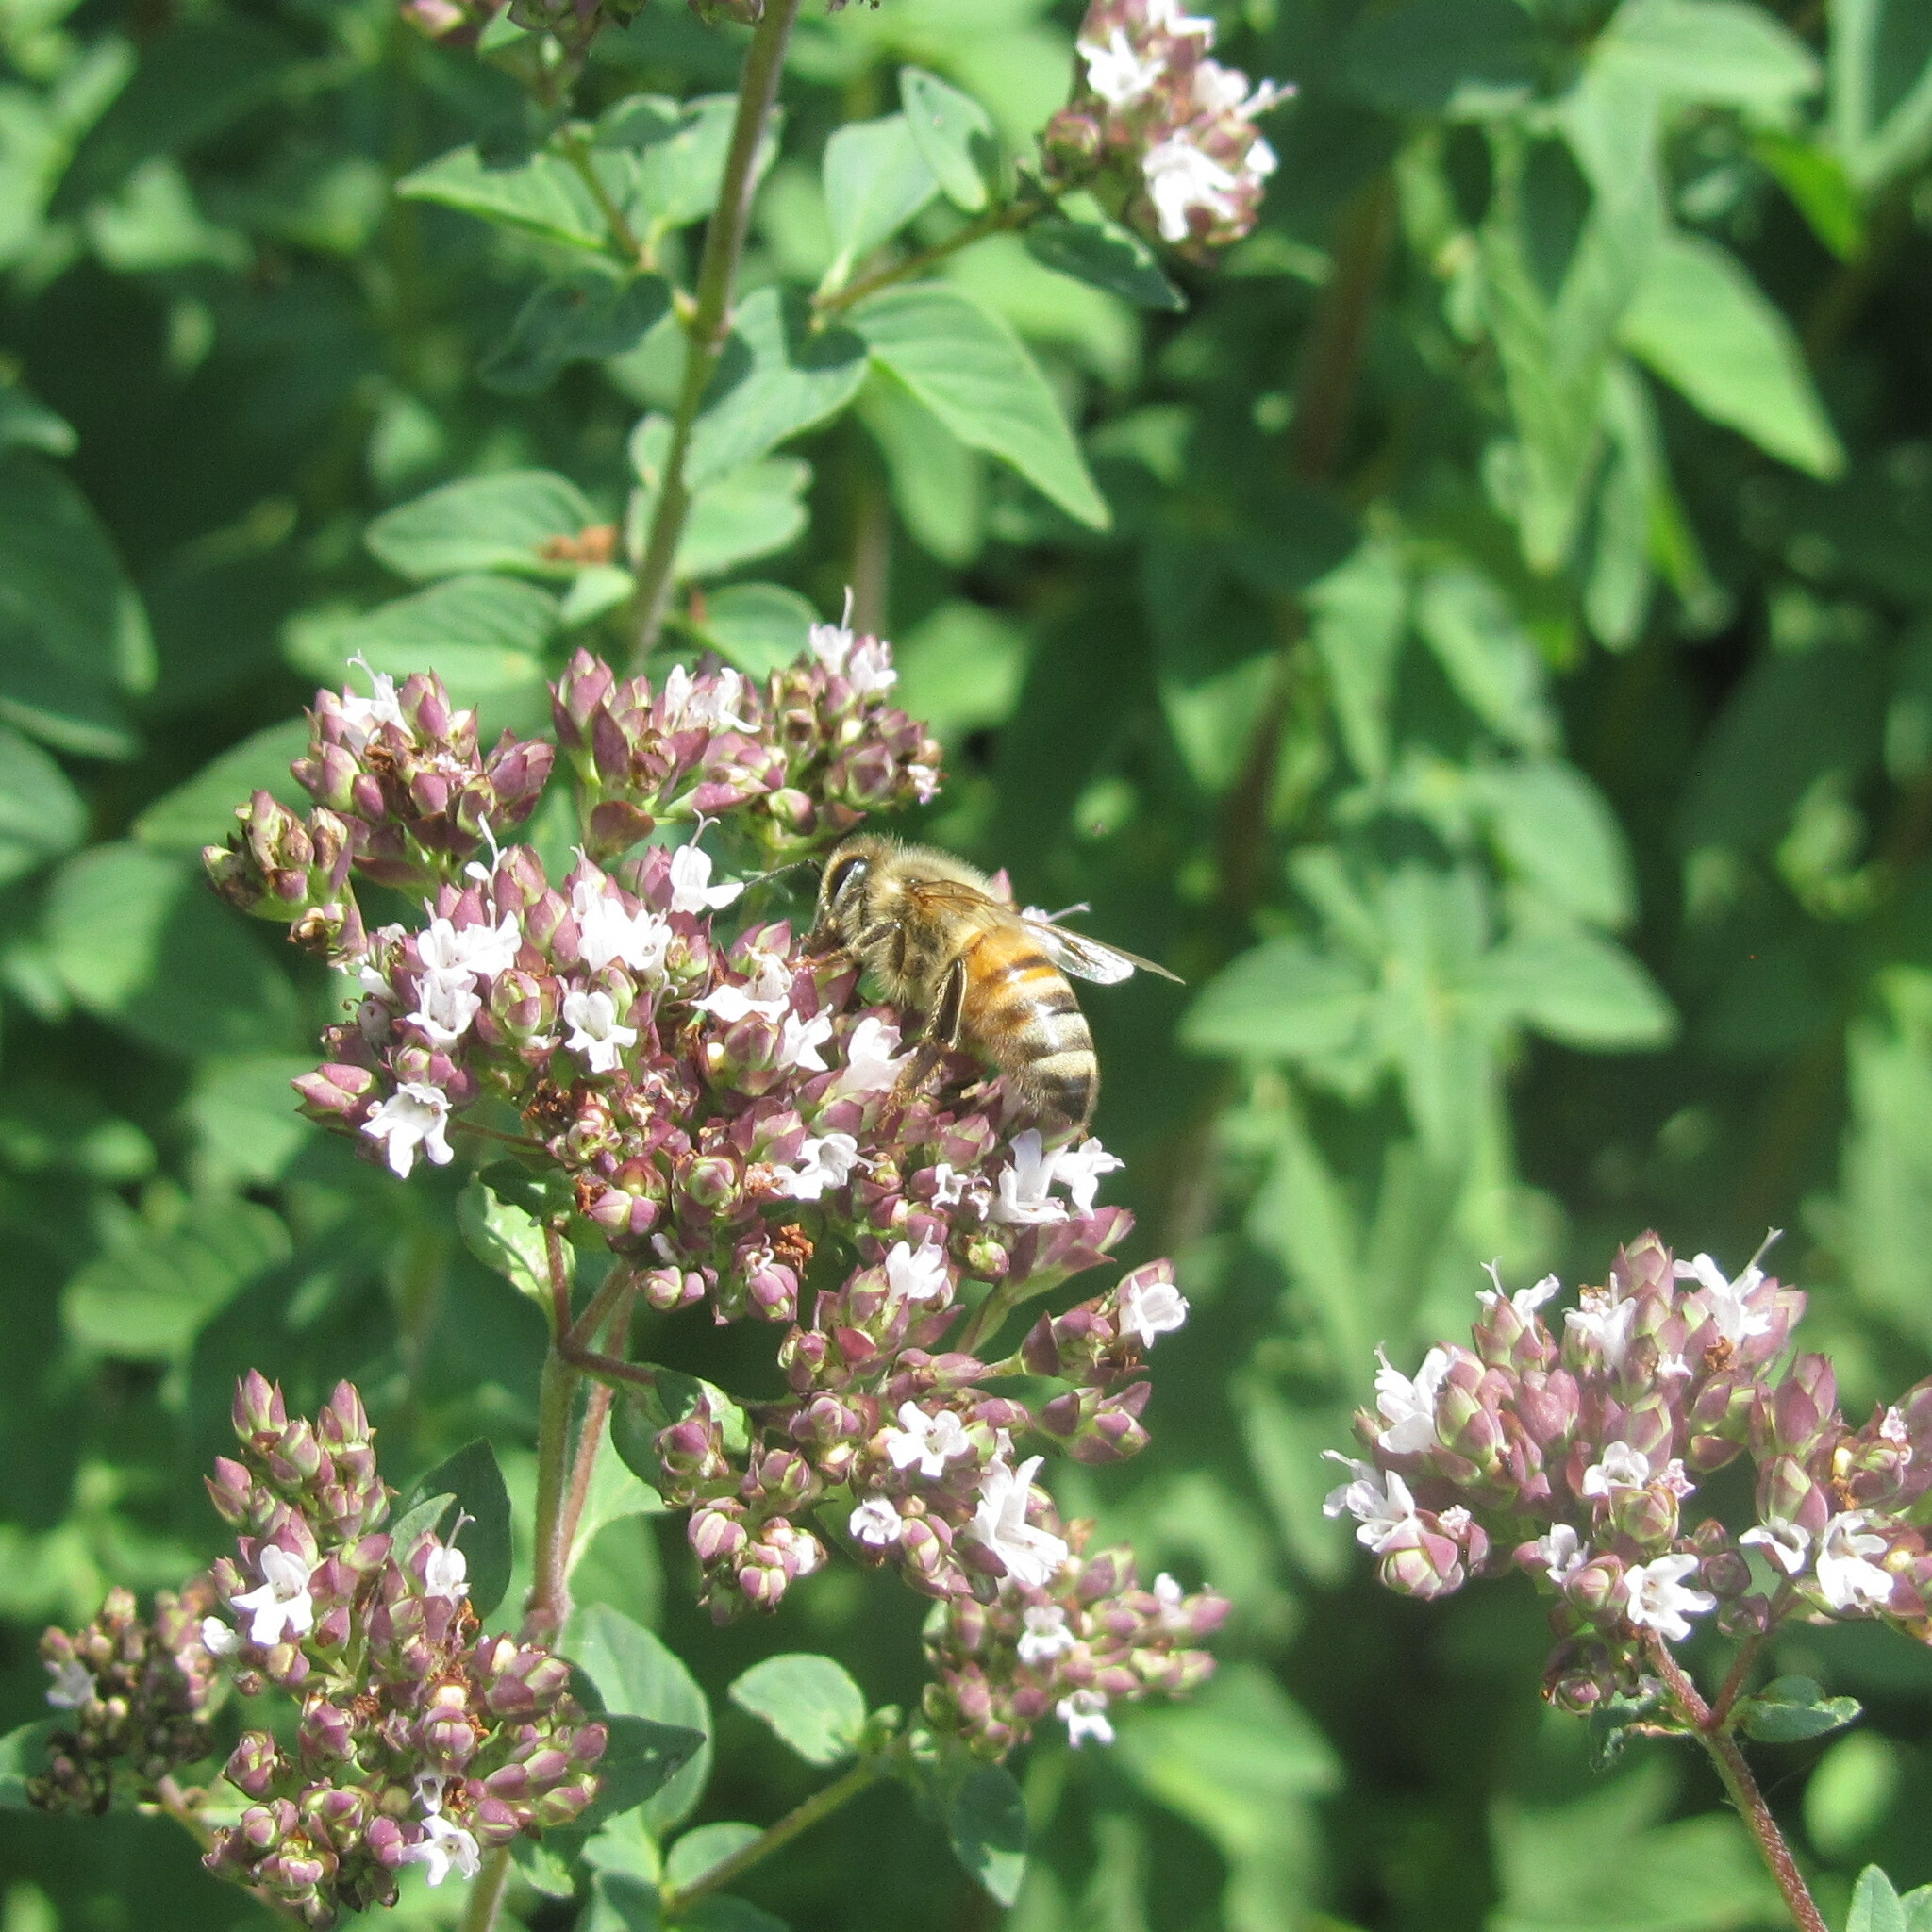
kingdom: Animalia
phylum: Arthropoda
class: Insecta
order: Hymenoptera
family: Apidae
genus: Apis
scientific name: Apis mellifera
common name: Honey bee
